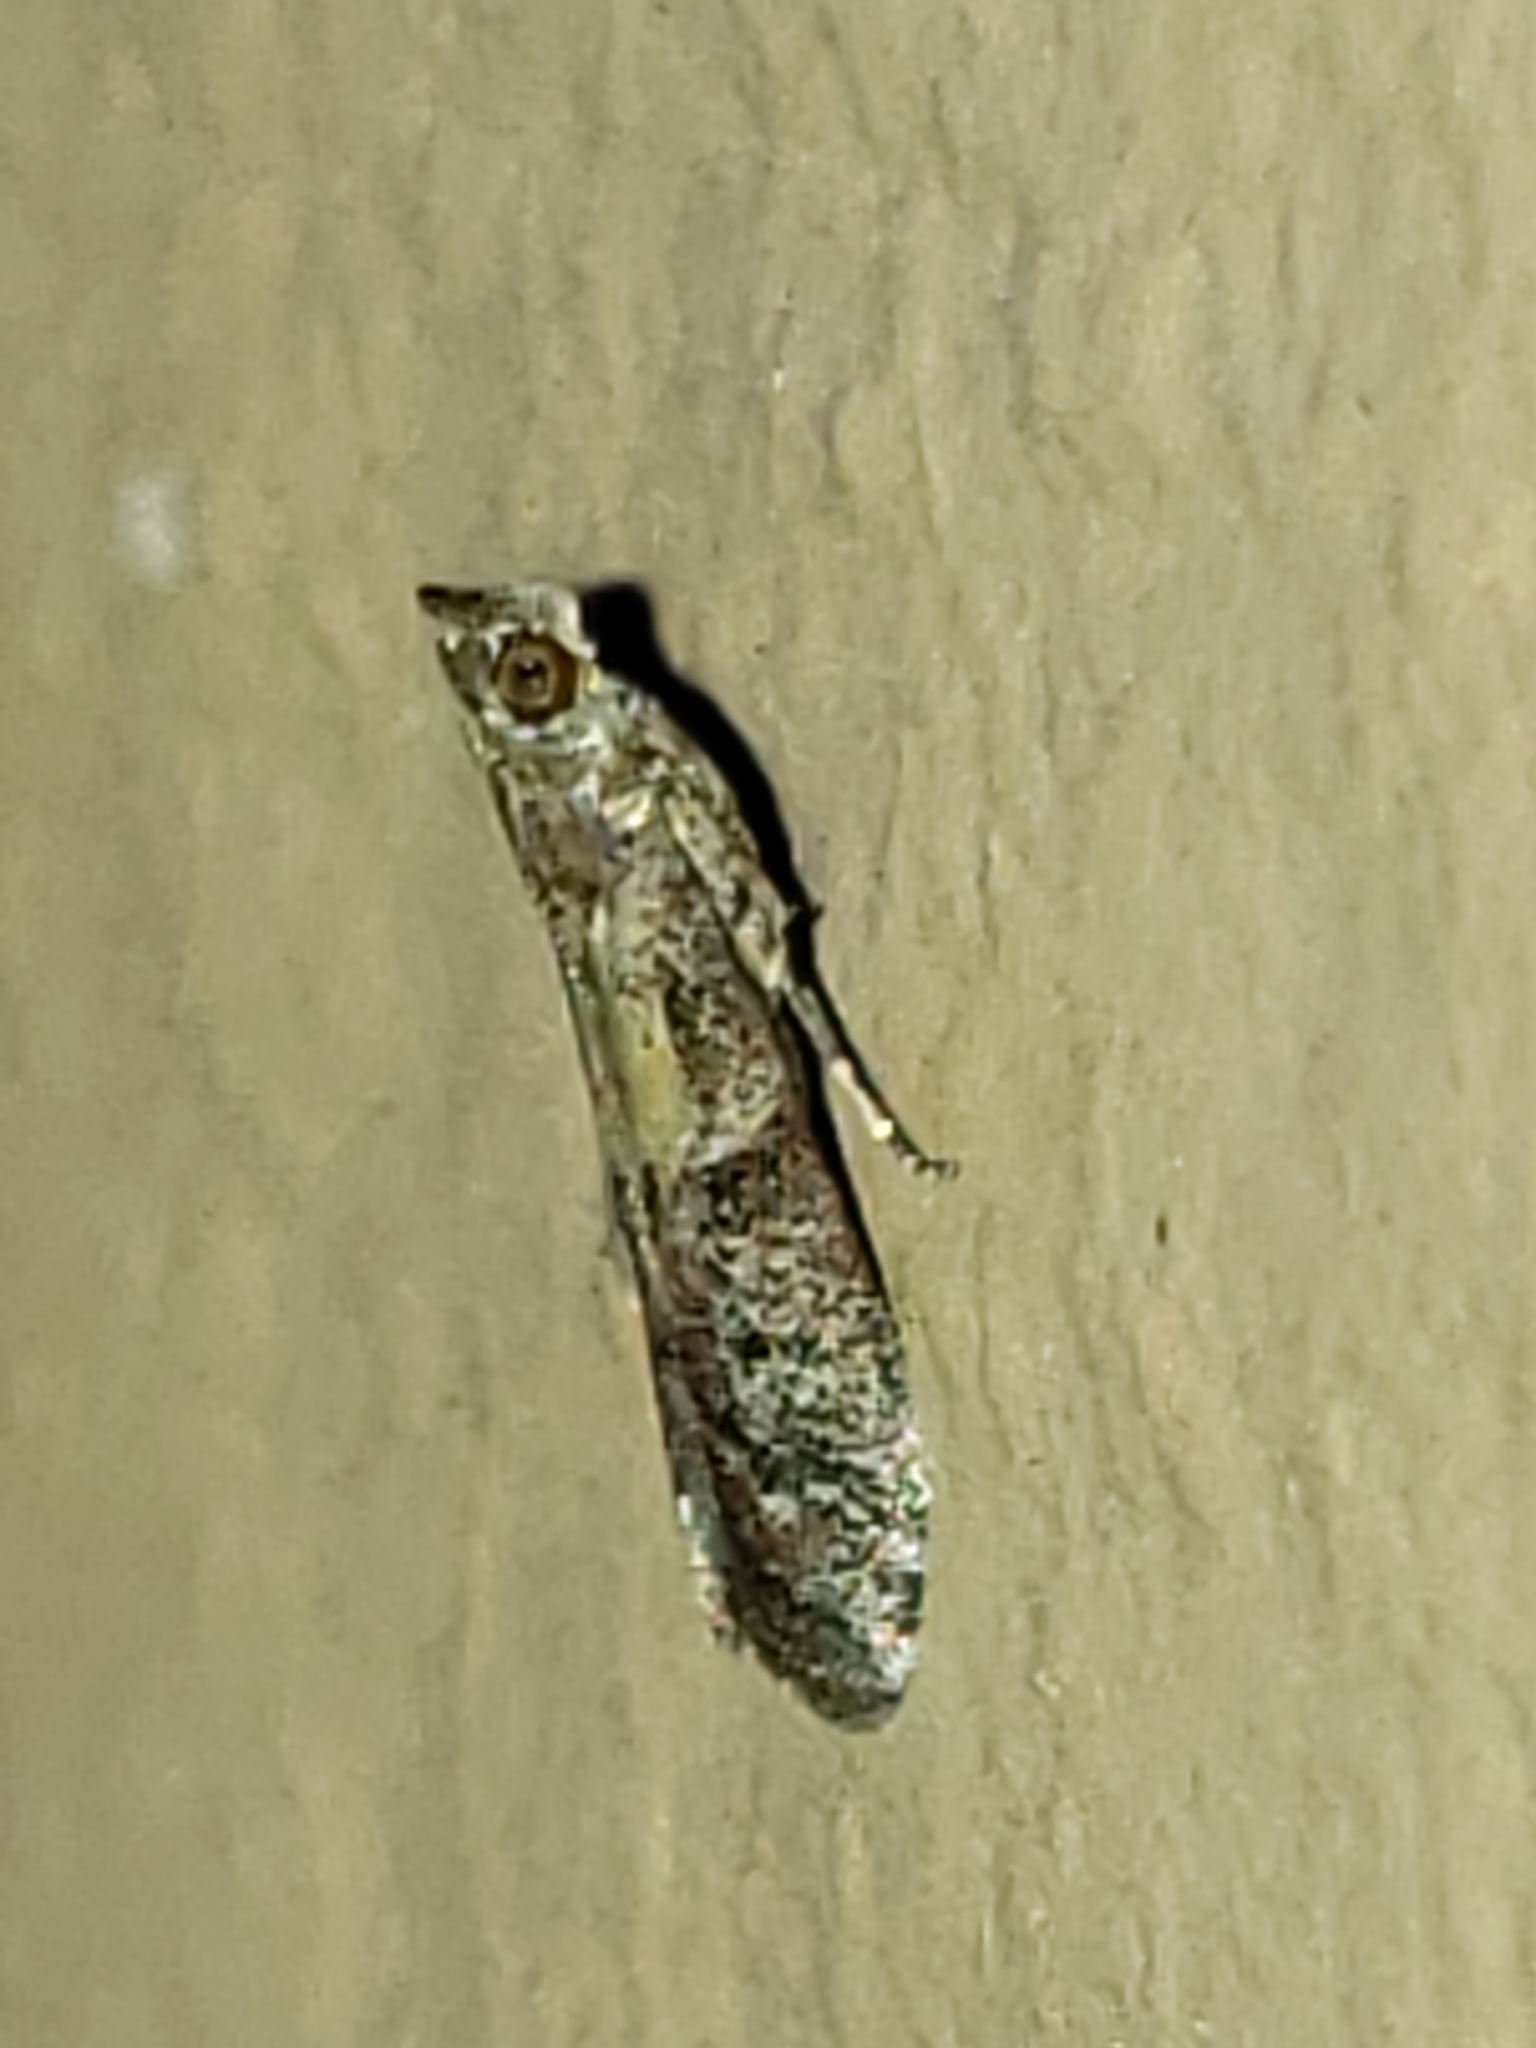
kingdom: Animalia
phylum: Arthropoda
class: Insecta
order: Lepidoptera
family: Pyralidae
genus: Ephestiodes
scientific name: Ephestiodes infimella
